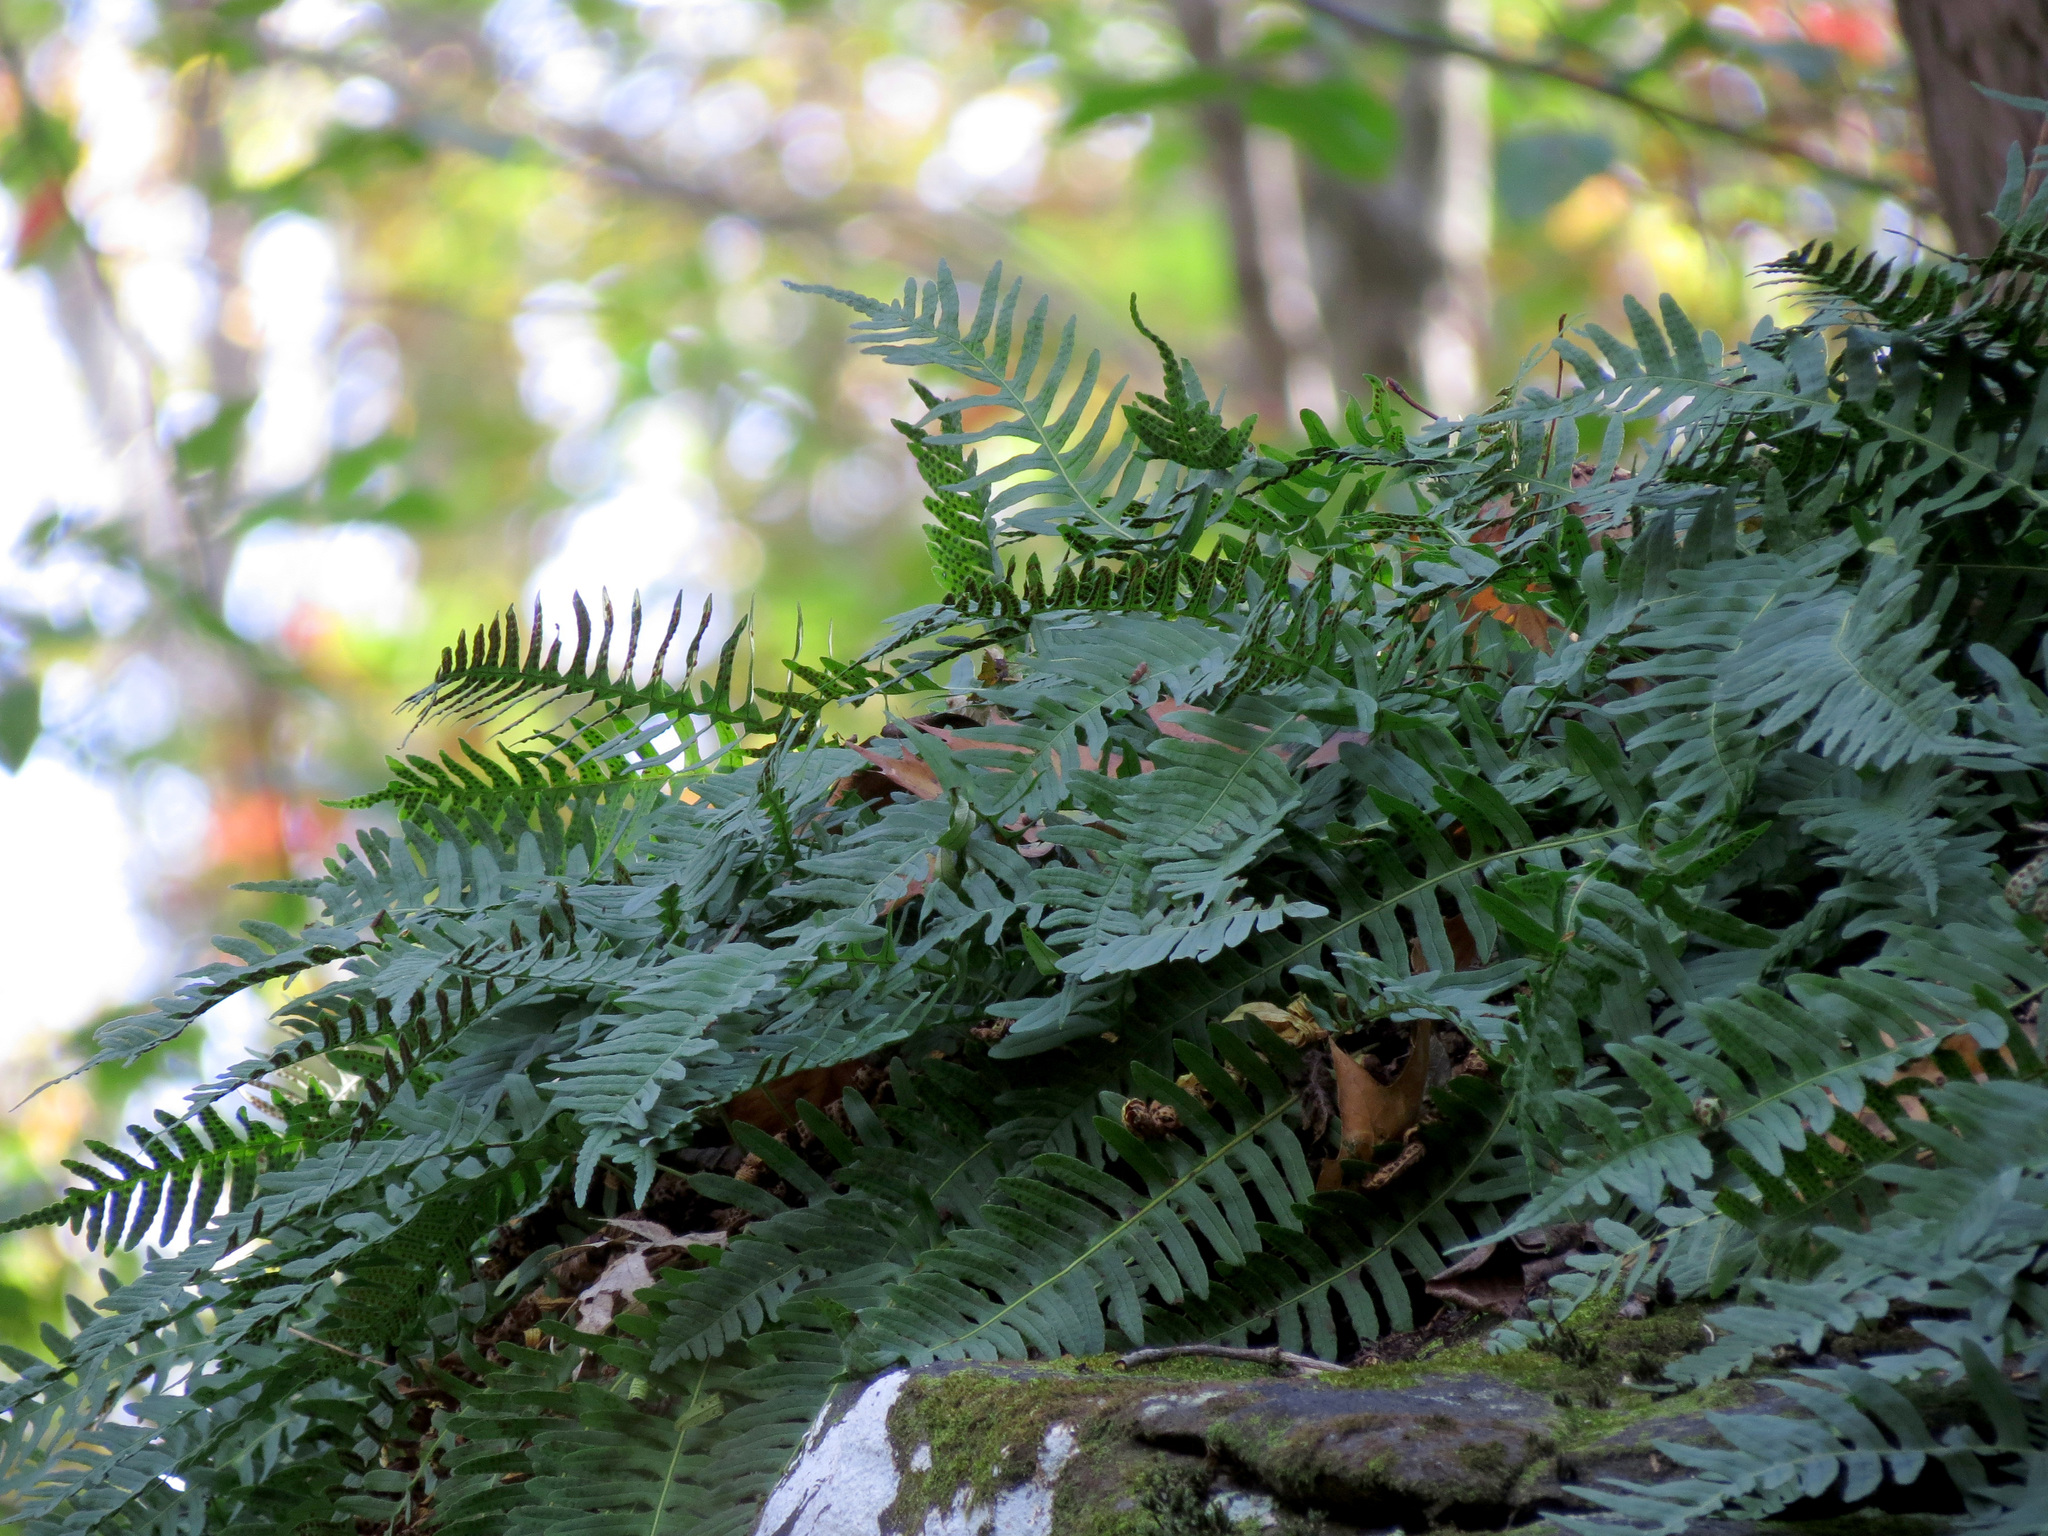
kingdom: Plantae
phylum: Tracheophyta
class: Polypodiopsida
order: Polypodiales
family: Polypodiaceae
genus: Polypodium
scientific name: Polypodium virginianum
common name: American wall fern
